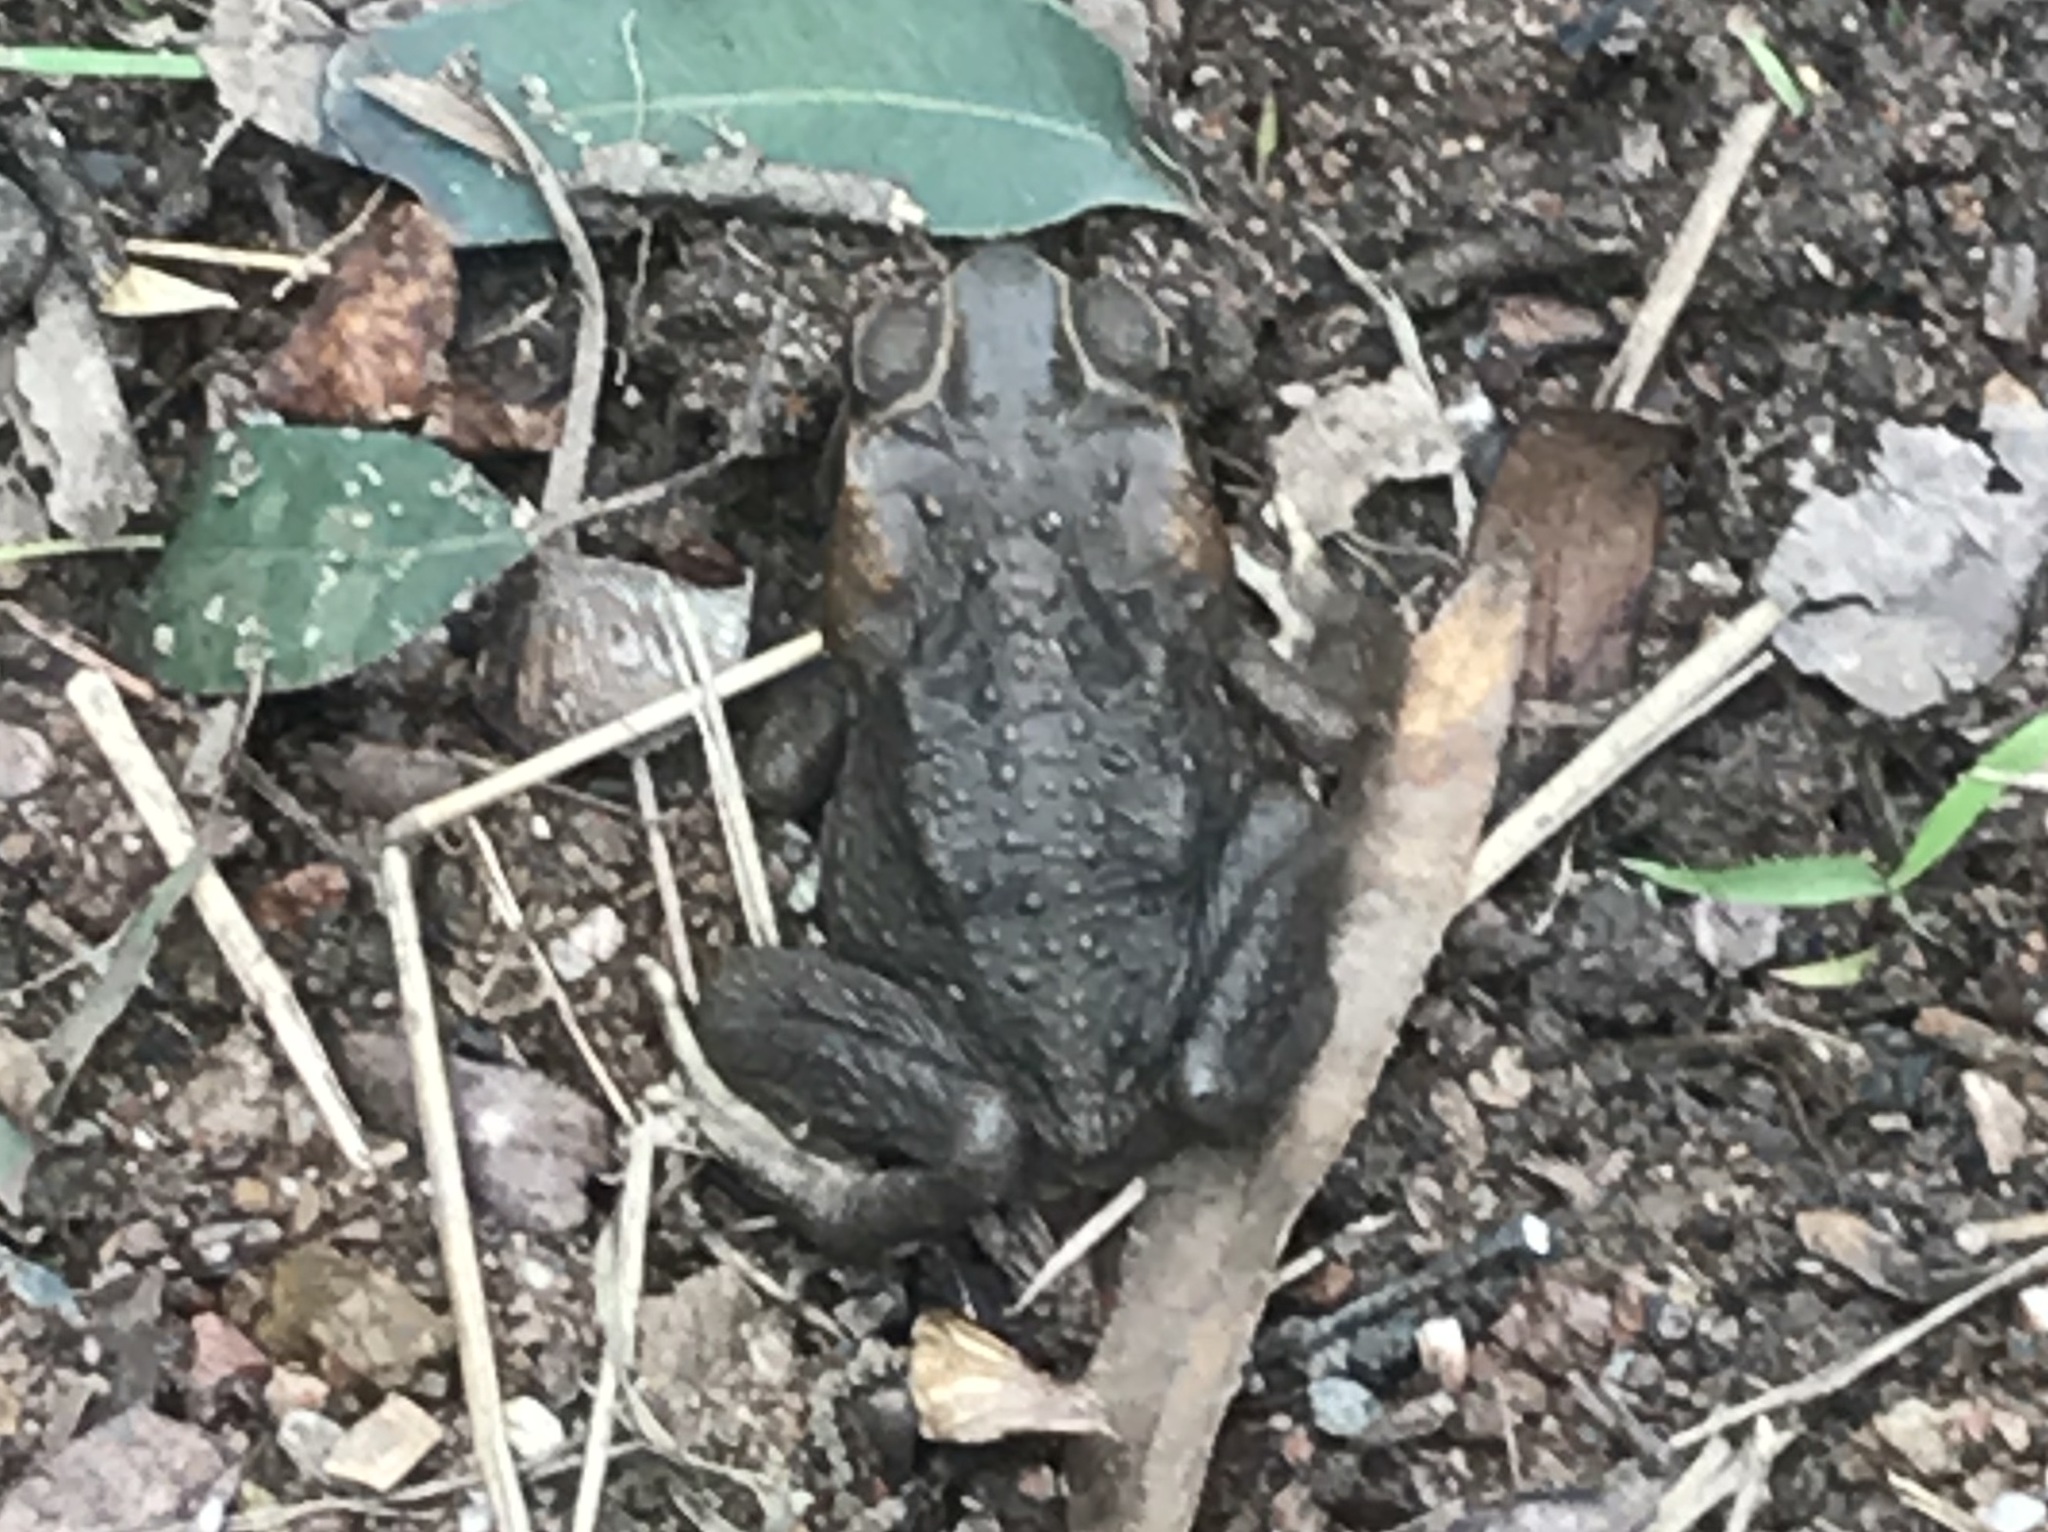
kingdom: Animalia
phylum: Chordata
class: Amphibia
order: Anura
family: Bufonidae
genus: Rhinella
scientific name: Rhinella marina
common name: Cane toad
